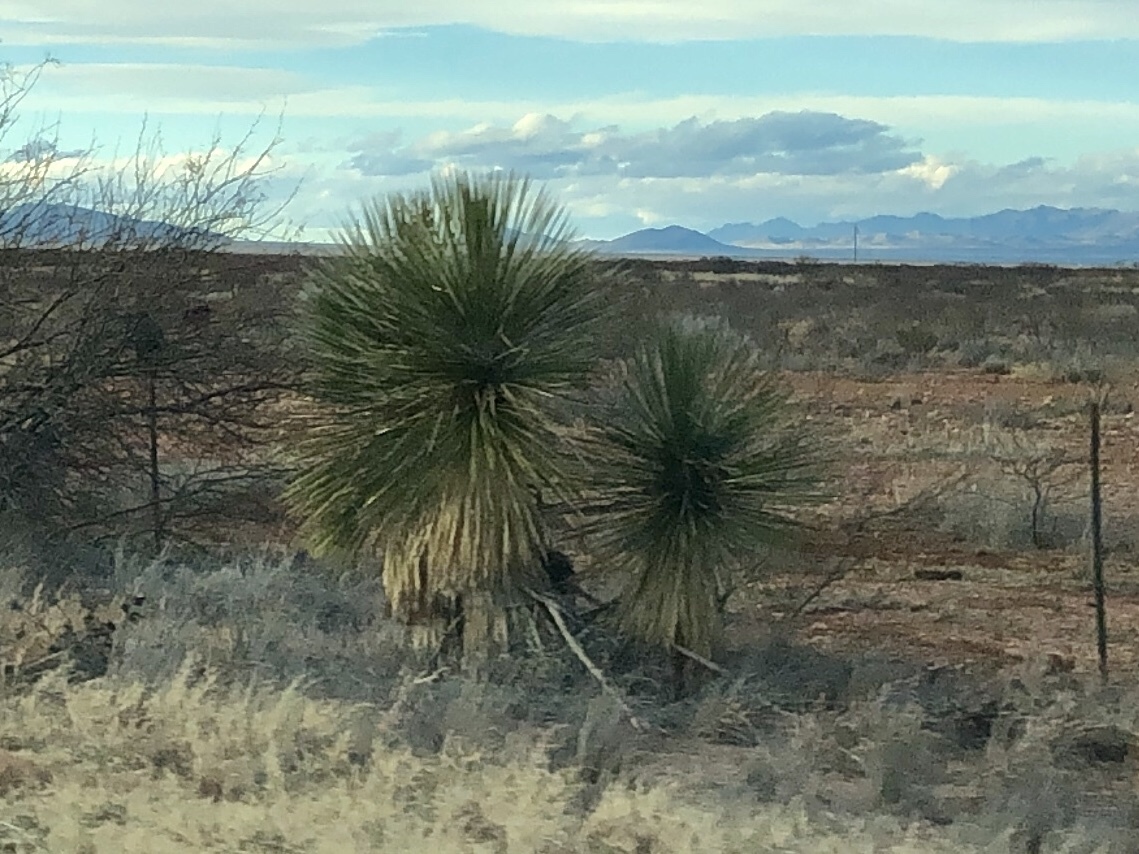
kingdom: Plantae
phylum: Tracheophyta
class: Liliopsida
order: Asparagales
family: Asparagaceae
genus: Yucca
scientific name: Yucca elata
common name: Palmella
